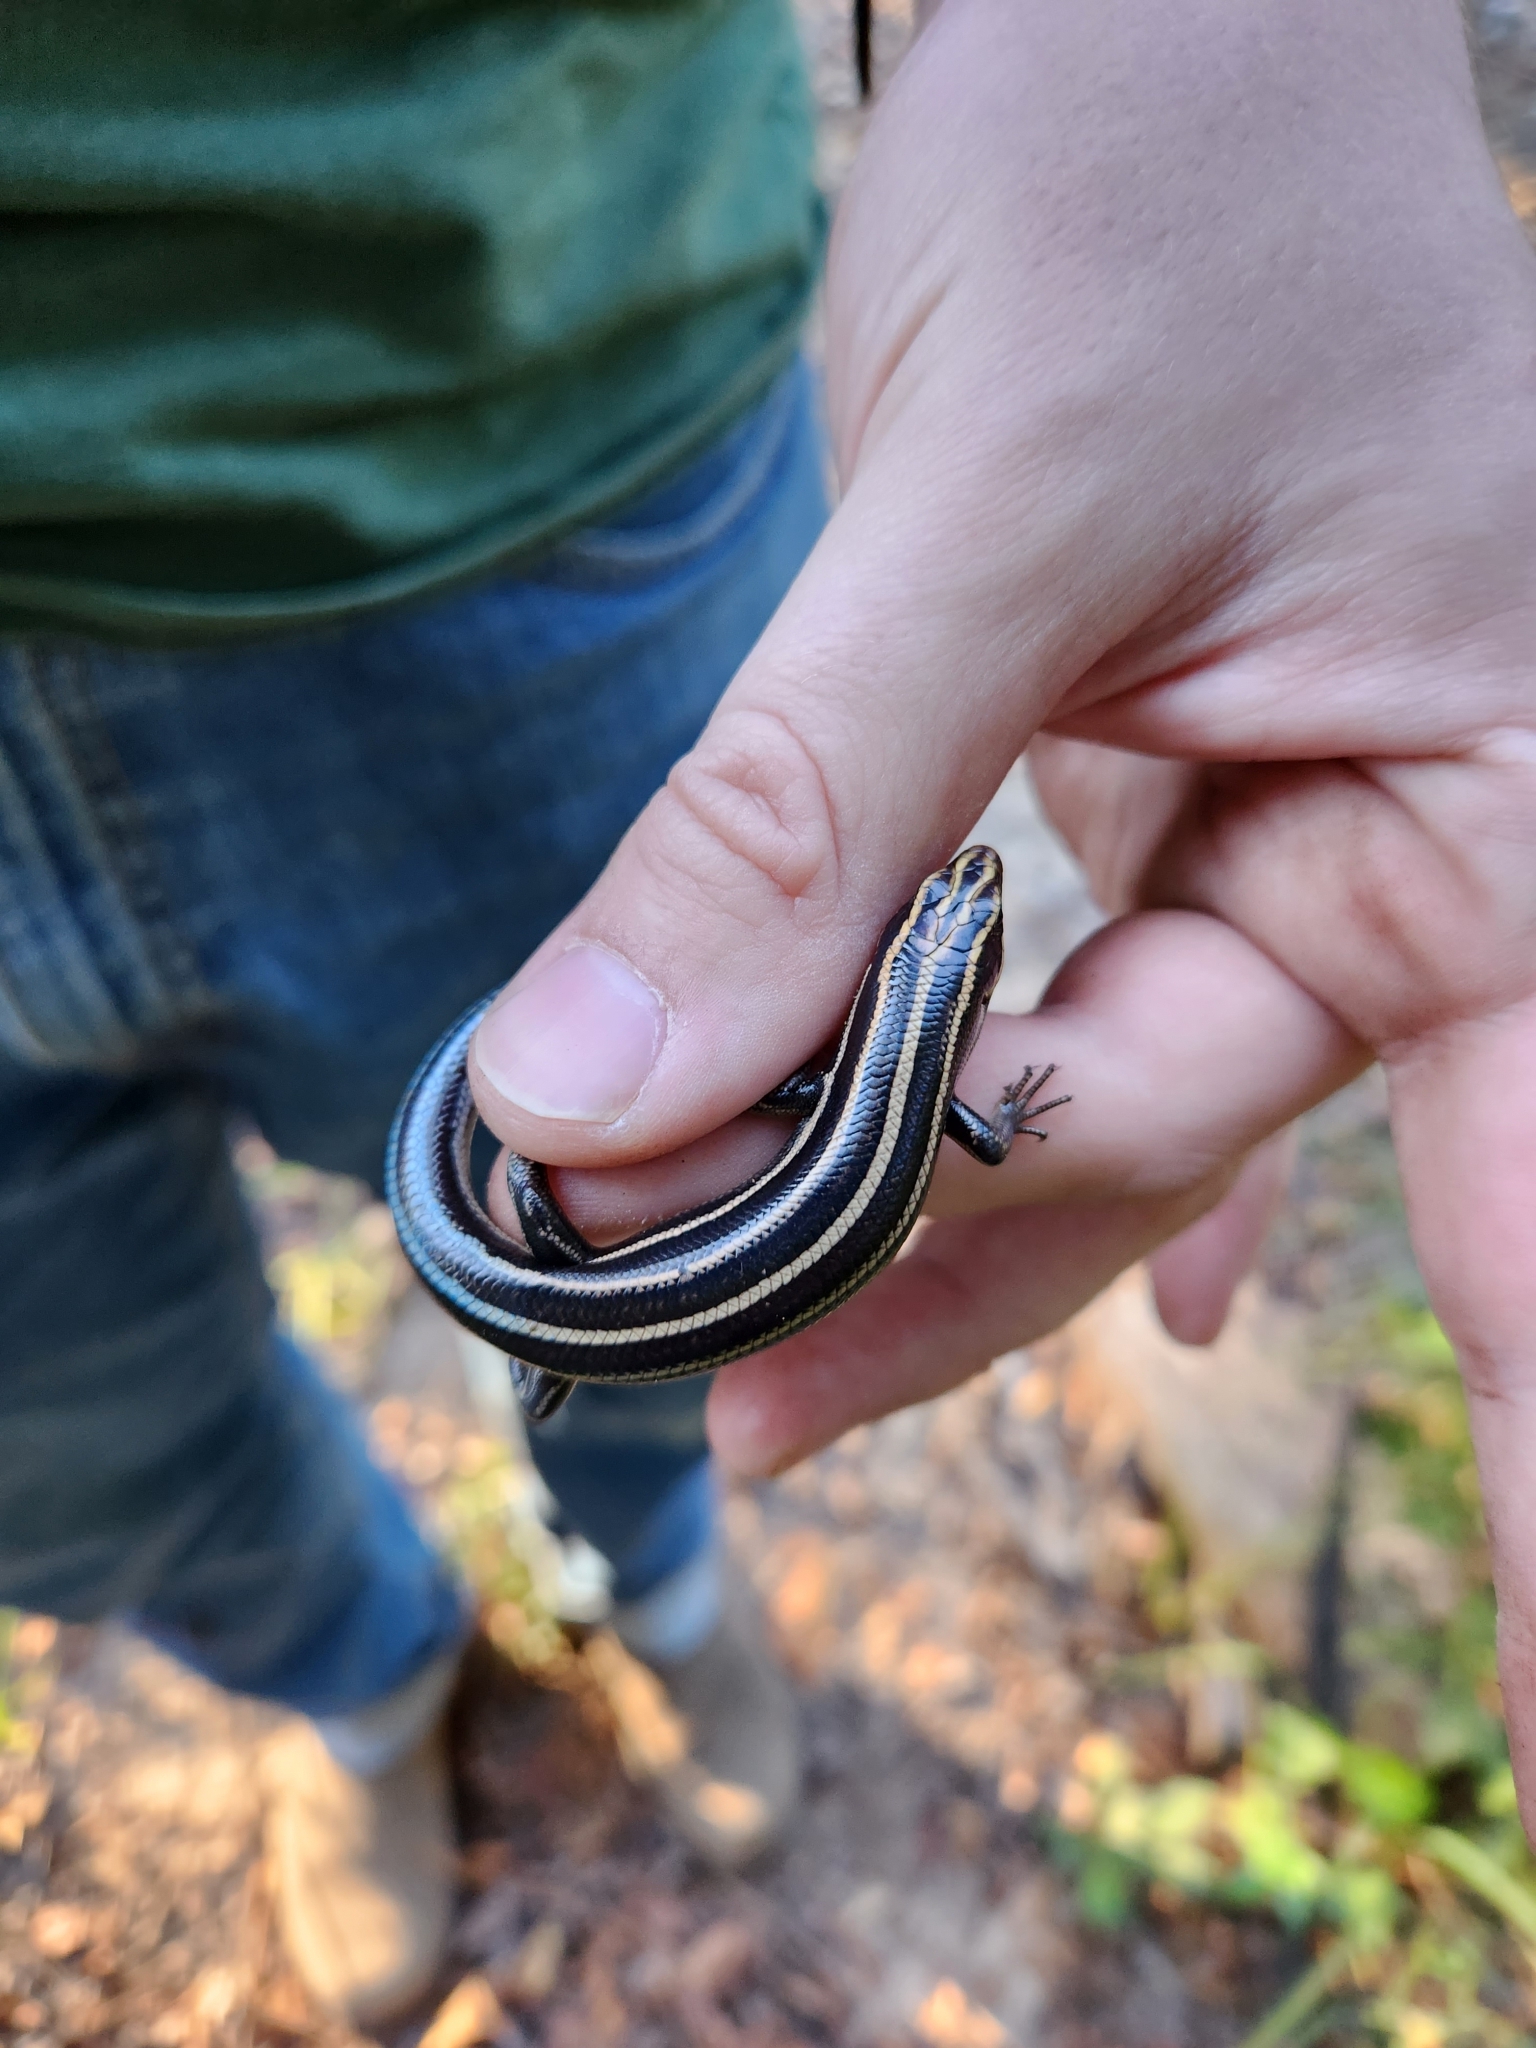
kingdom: Animalia
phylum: Chordata
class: Squamata
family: Scincidae
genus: Plestiodon
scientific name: Plestiodon fasciatus
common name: Five-lined skink
